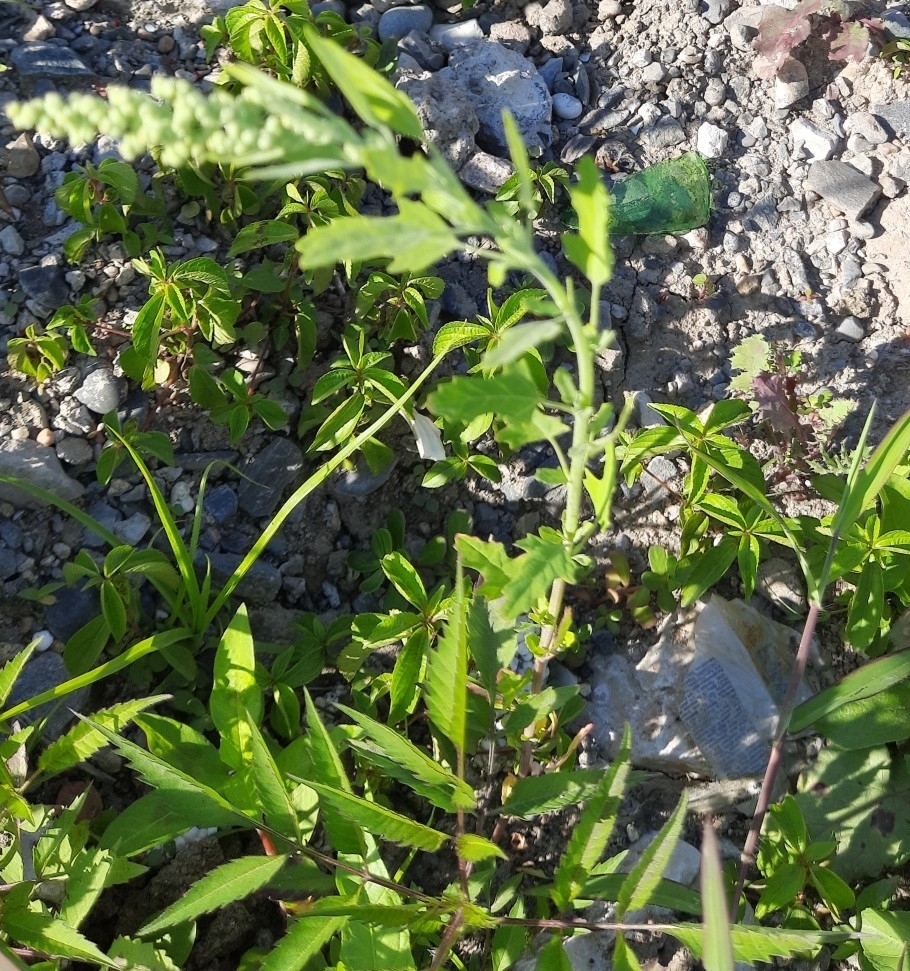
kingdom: Plantae
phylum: Tracheophyta
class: Magnoliopsida
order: Caryophyllales
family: Amaranthaceae
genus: Chenopodium
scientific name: Chenopodium album
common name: Fat-hen
